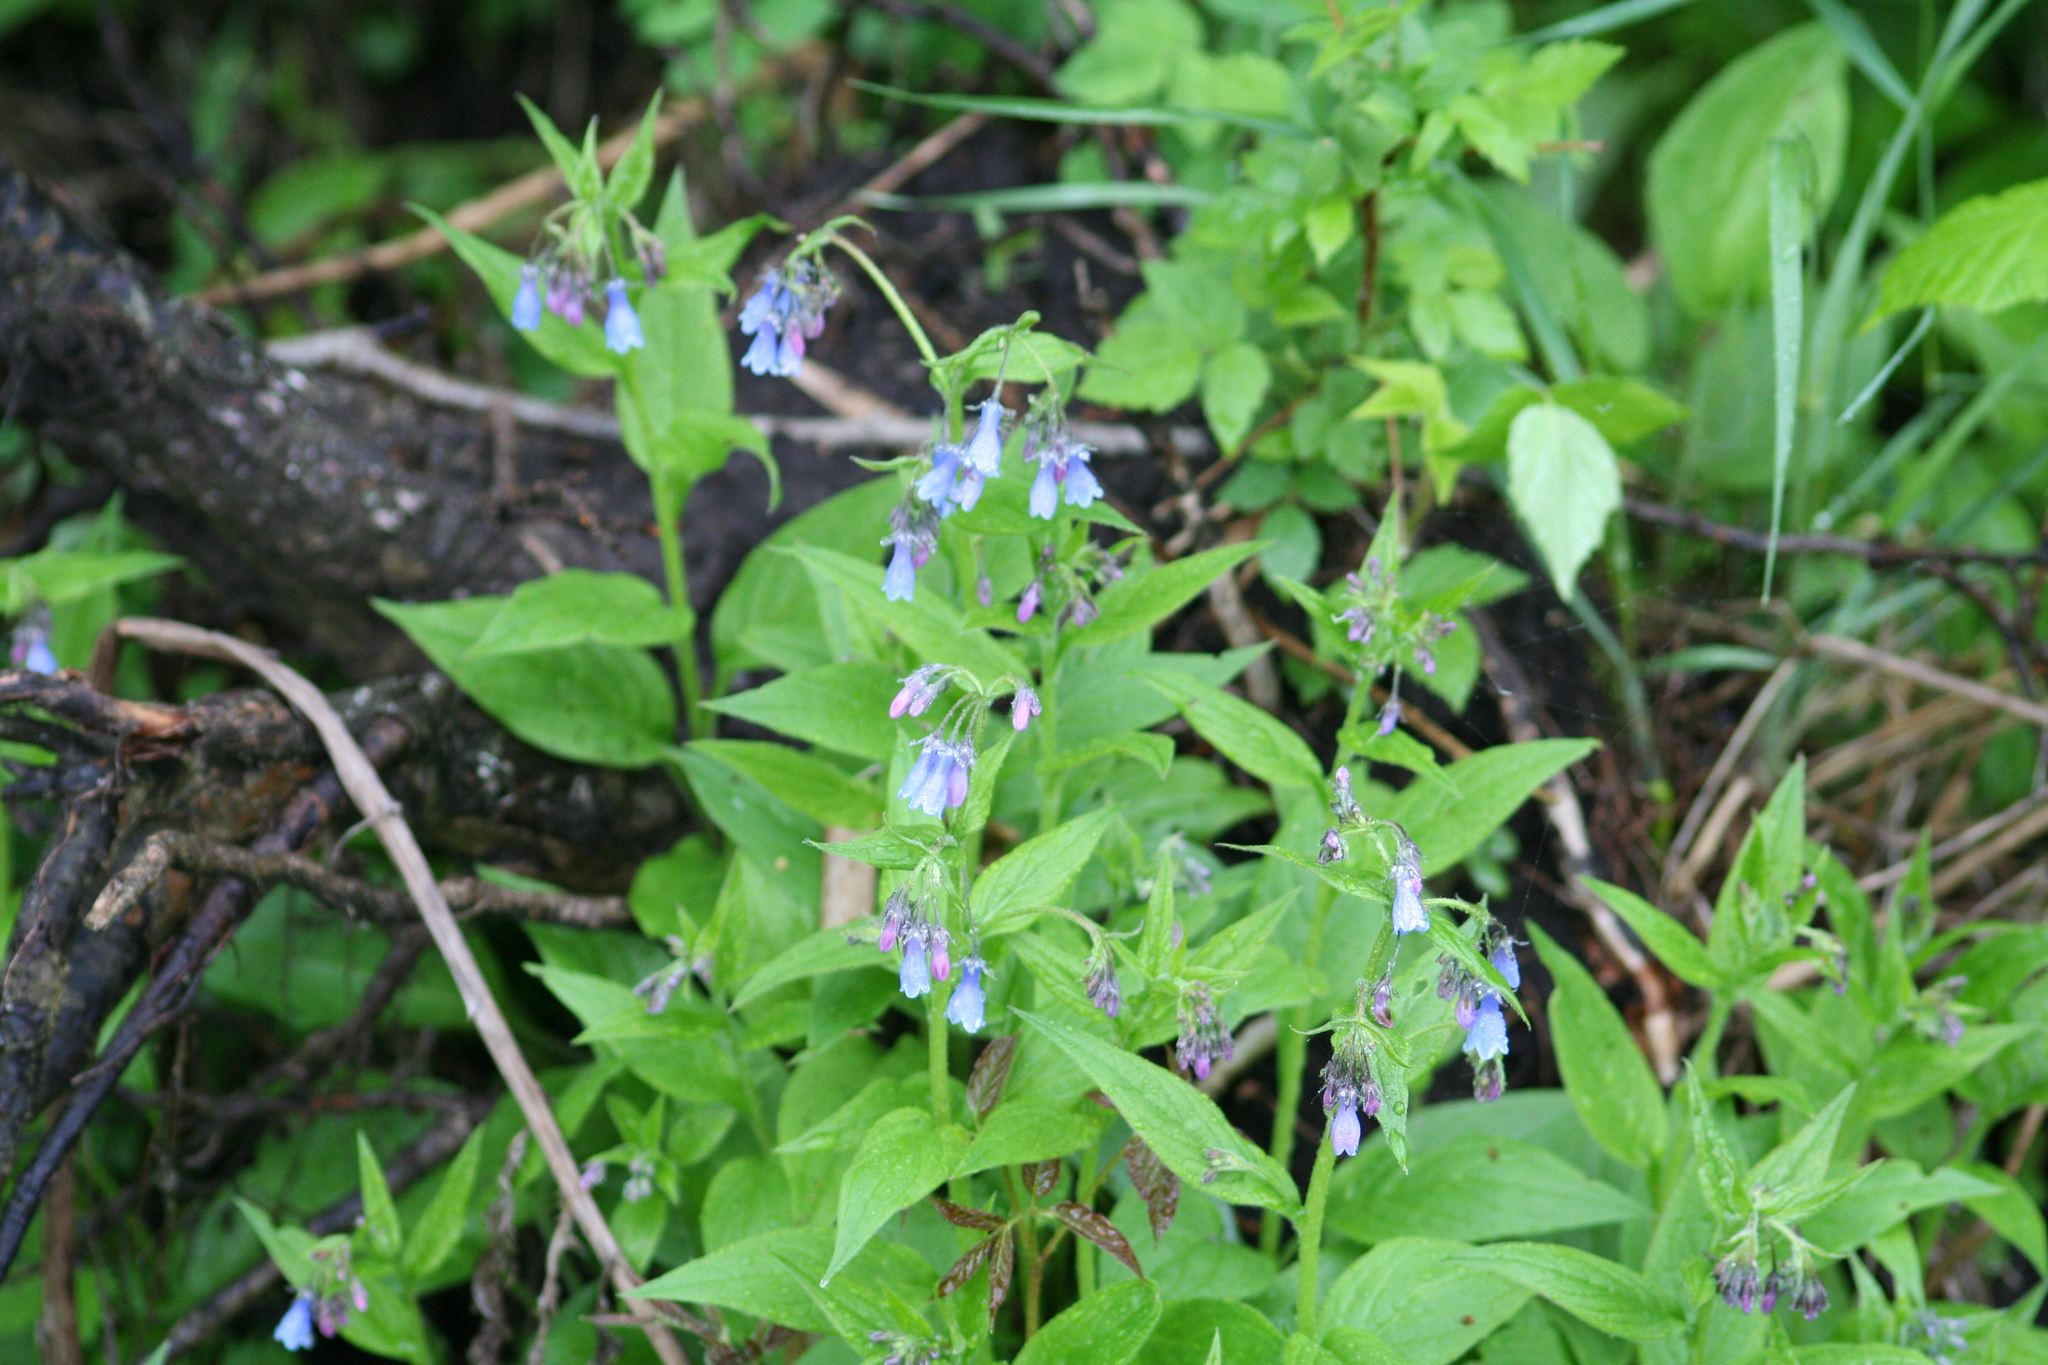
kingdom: Plantae
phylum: Tracheophyta
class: Magnoliopsida
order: Boraginales
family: Boraginaceae
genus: Mertensia
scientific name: Mertensia paniculata
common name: Panicled bluebells
